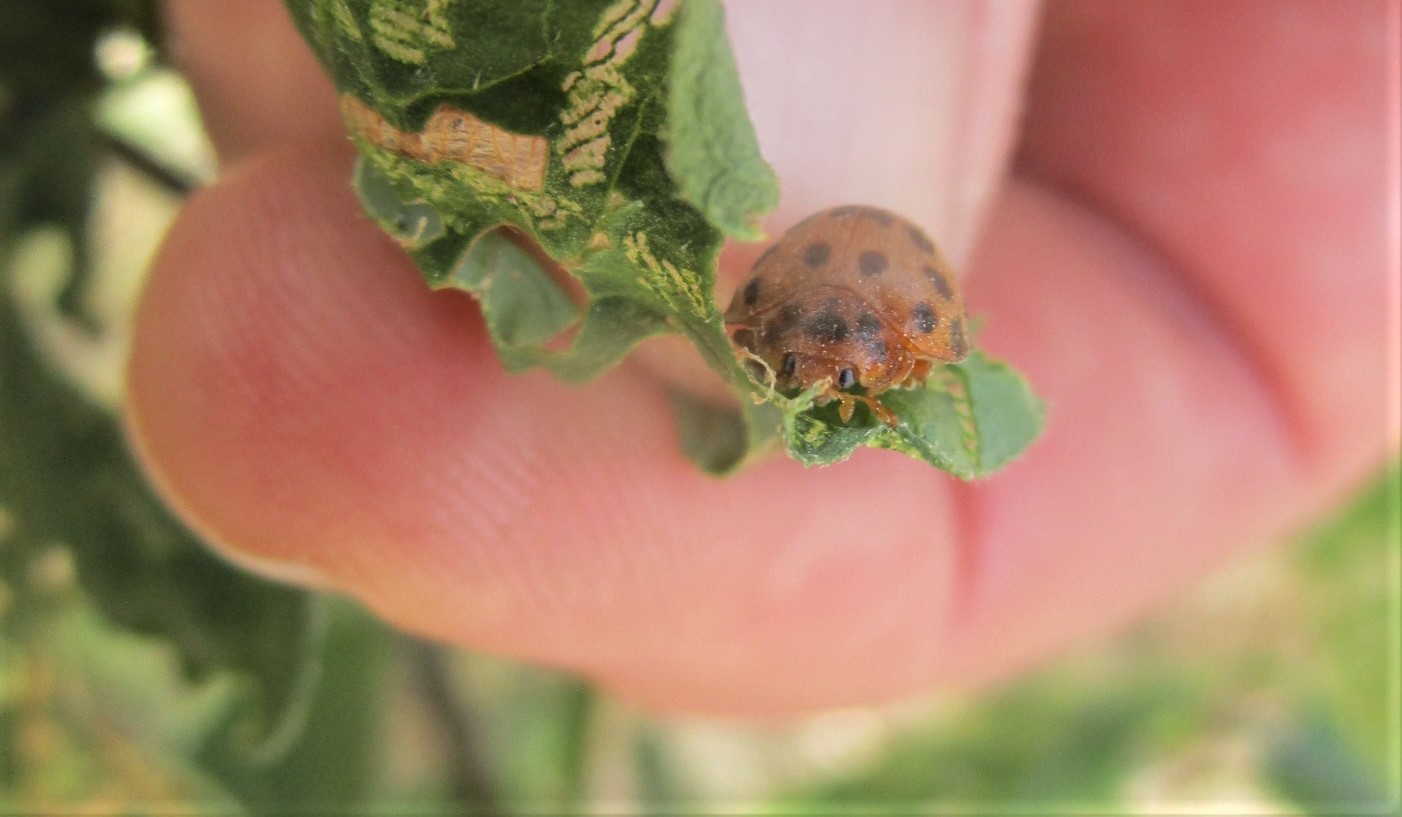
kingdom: Animalia
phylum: Arthropoda
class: Insecta
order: Coleoptera
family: Coccinellidae
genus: Henosepilachna
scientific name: Henosepilachna vigintioctopunctata
